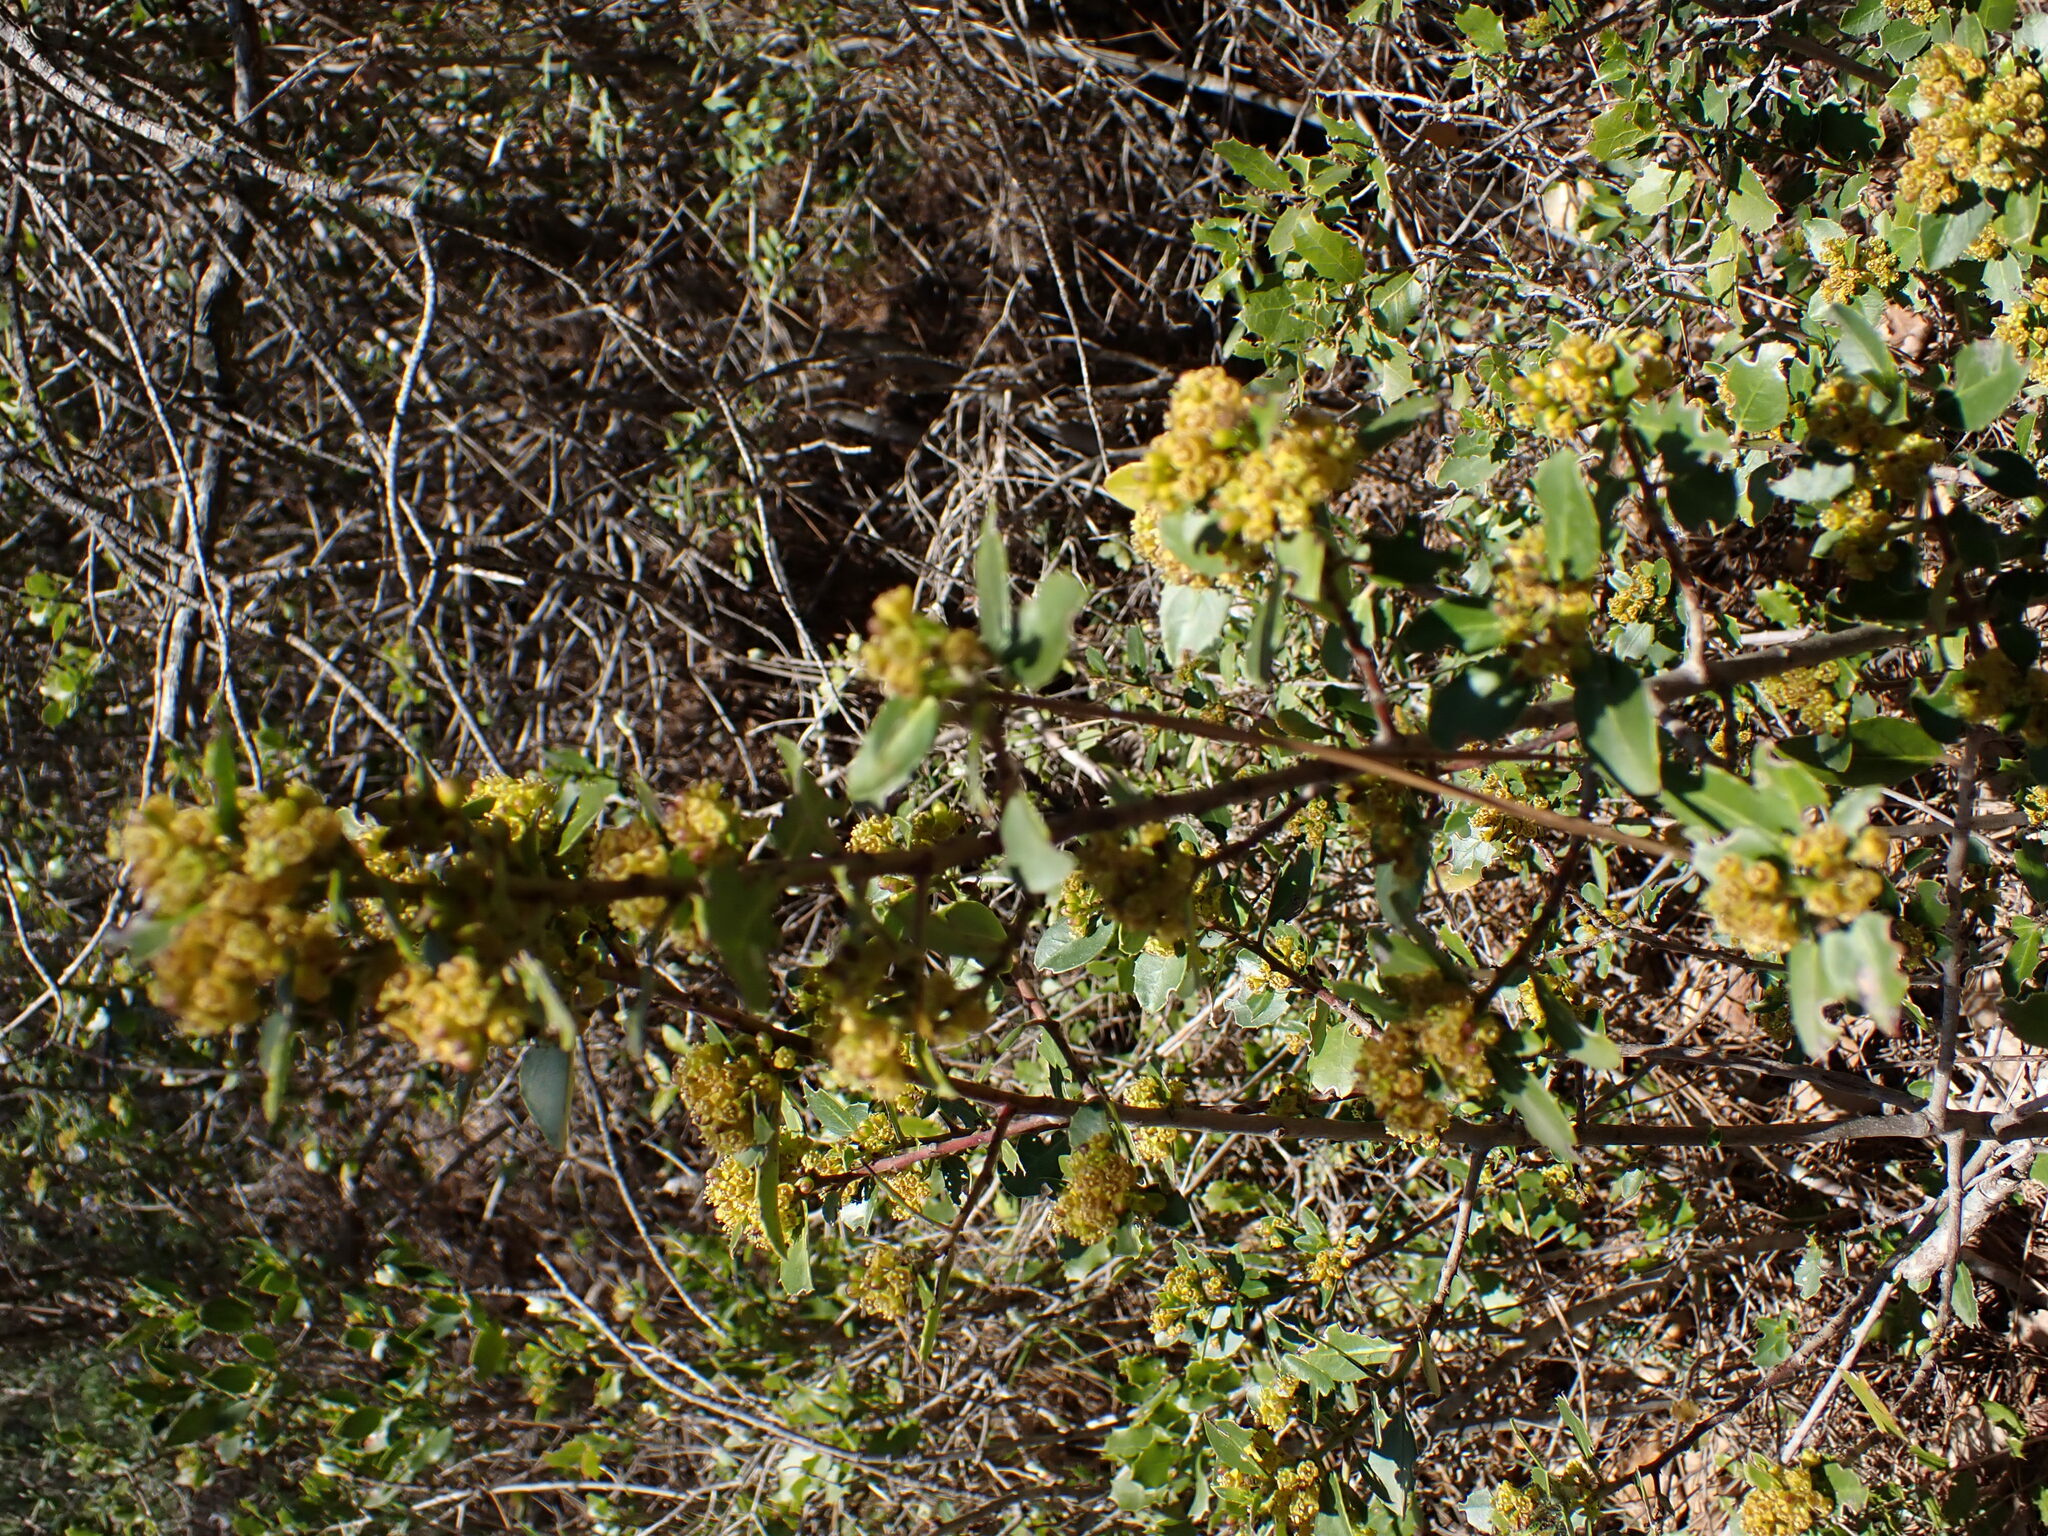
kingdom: Plantae
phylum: Tracheophyta
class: Magnoliopsida
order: Rosales
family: Rhamnaceae
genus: Rhamnus
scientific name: Rhamnus alaternus
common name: Mediterranean buckthorn
